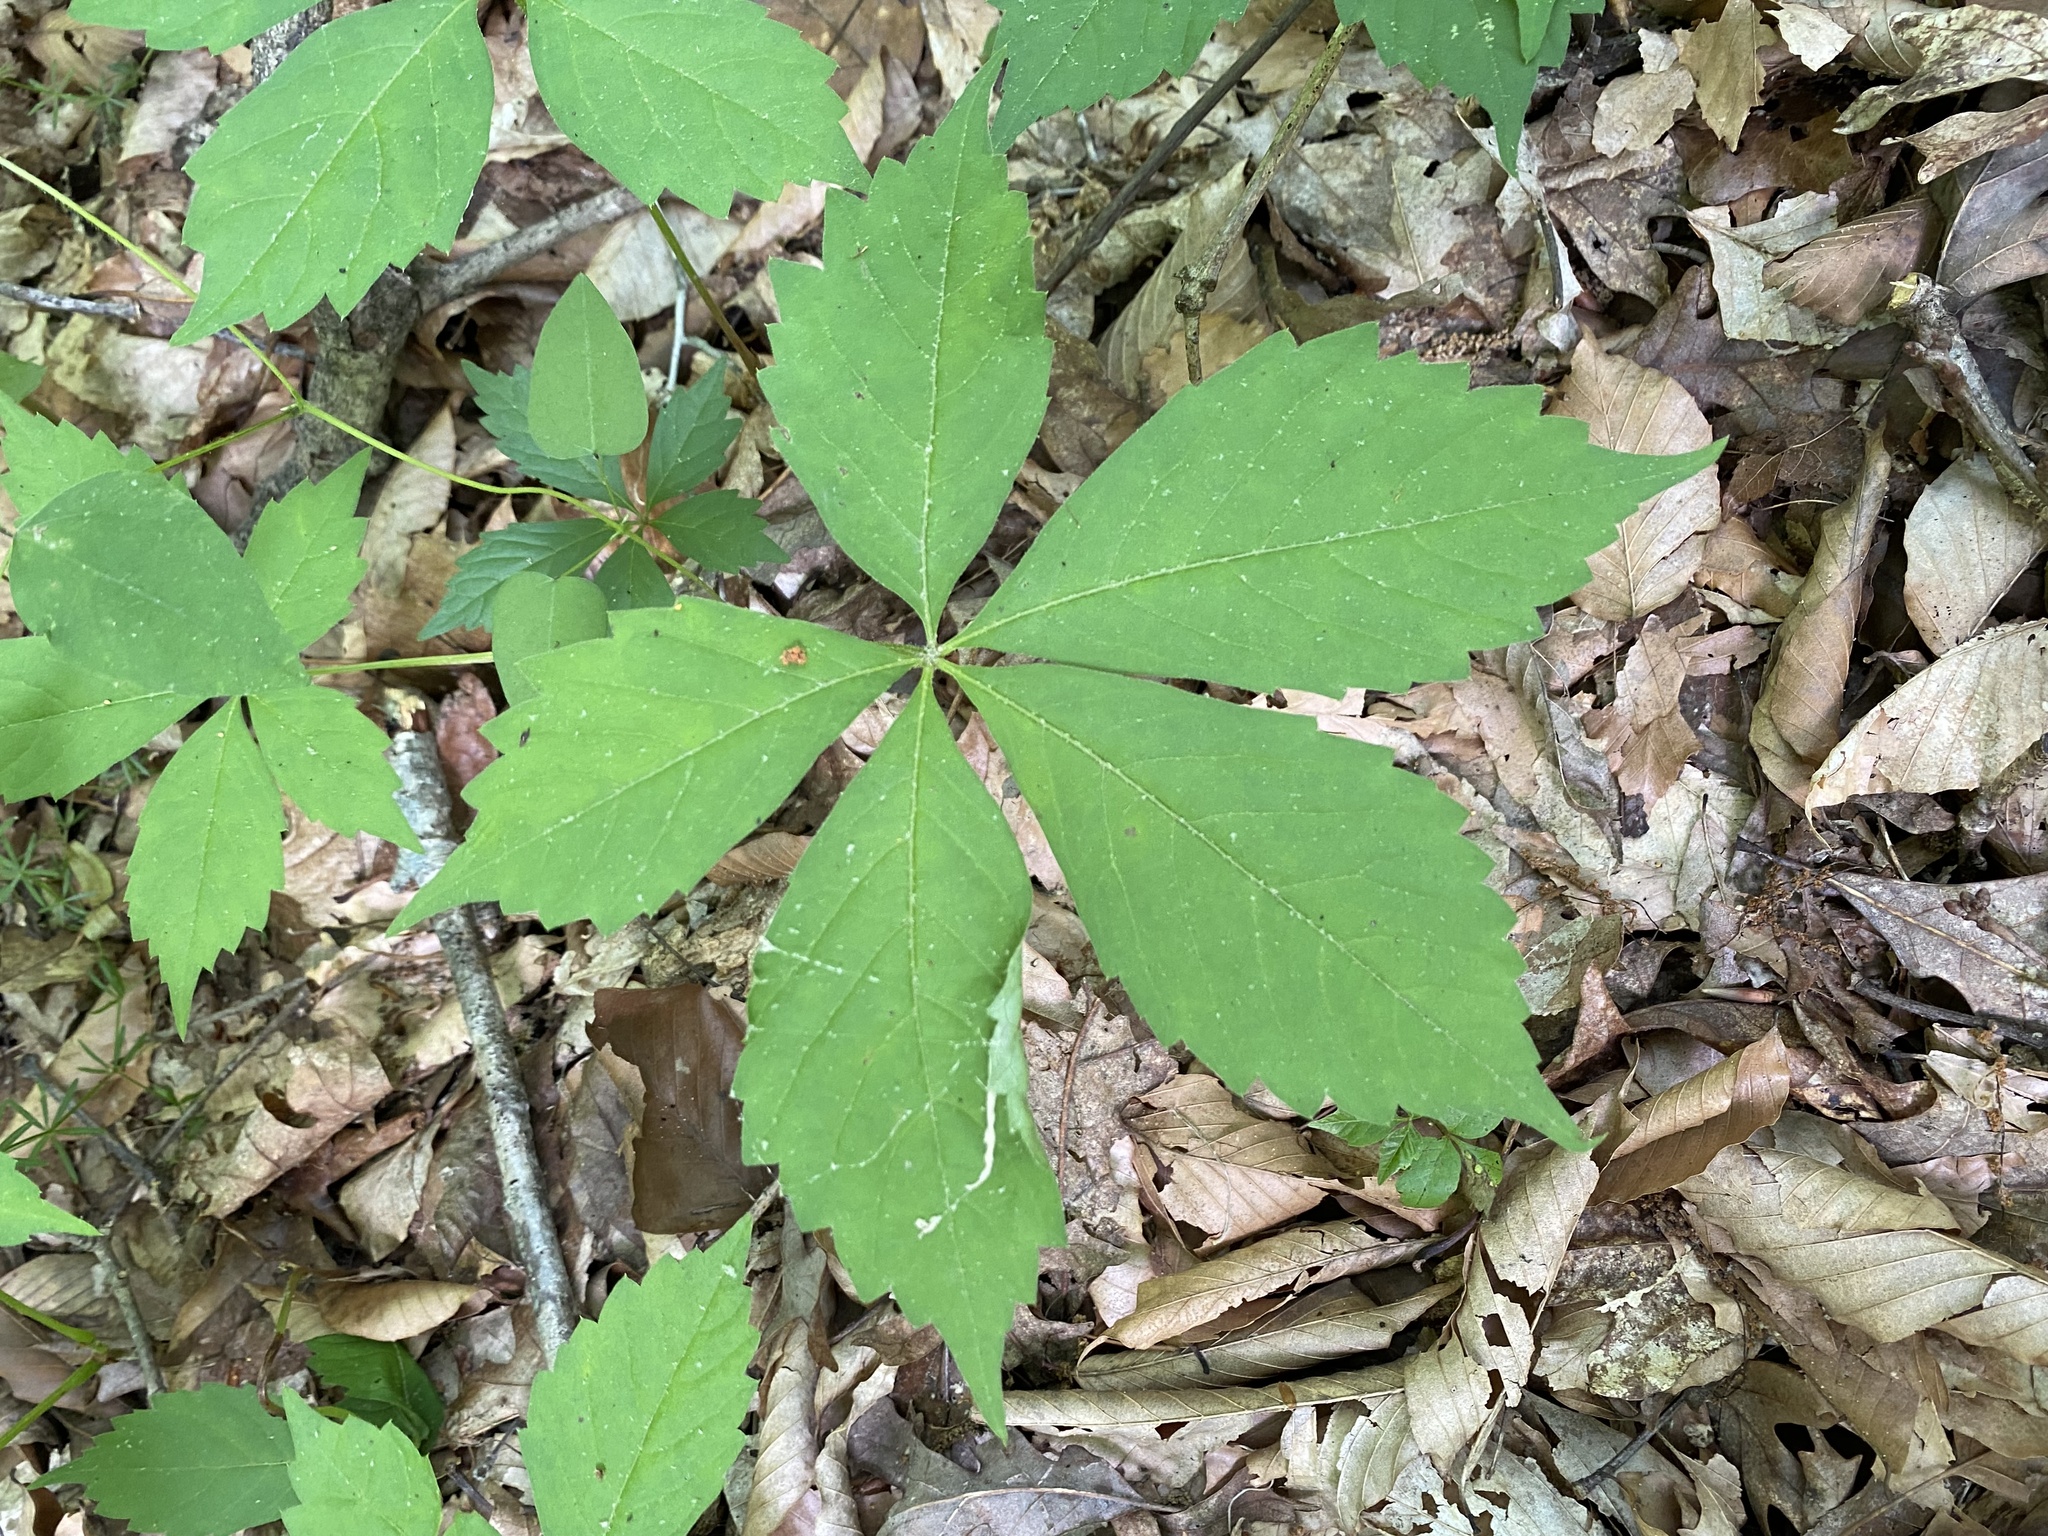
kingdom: Plantae
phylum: Tracheophyta
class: Magnoliopsida
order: Vitales
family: Vitaceae
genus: Parthenocissus
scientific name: Parthenocissus quinquefolia
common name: Virginia-creeper
